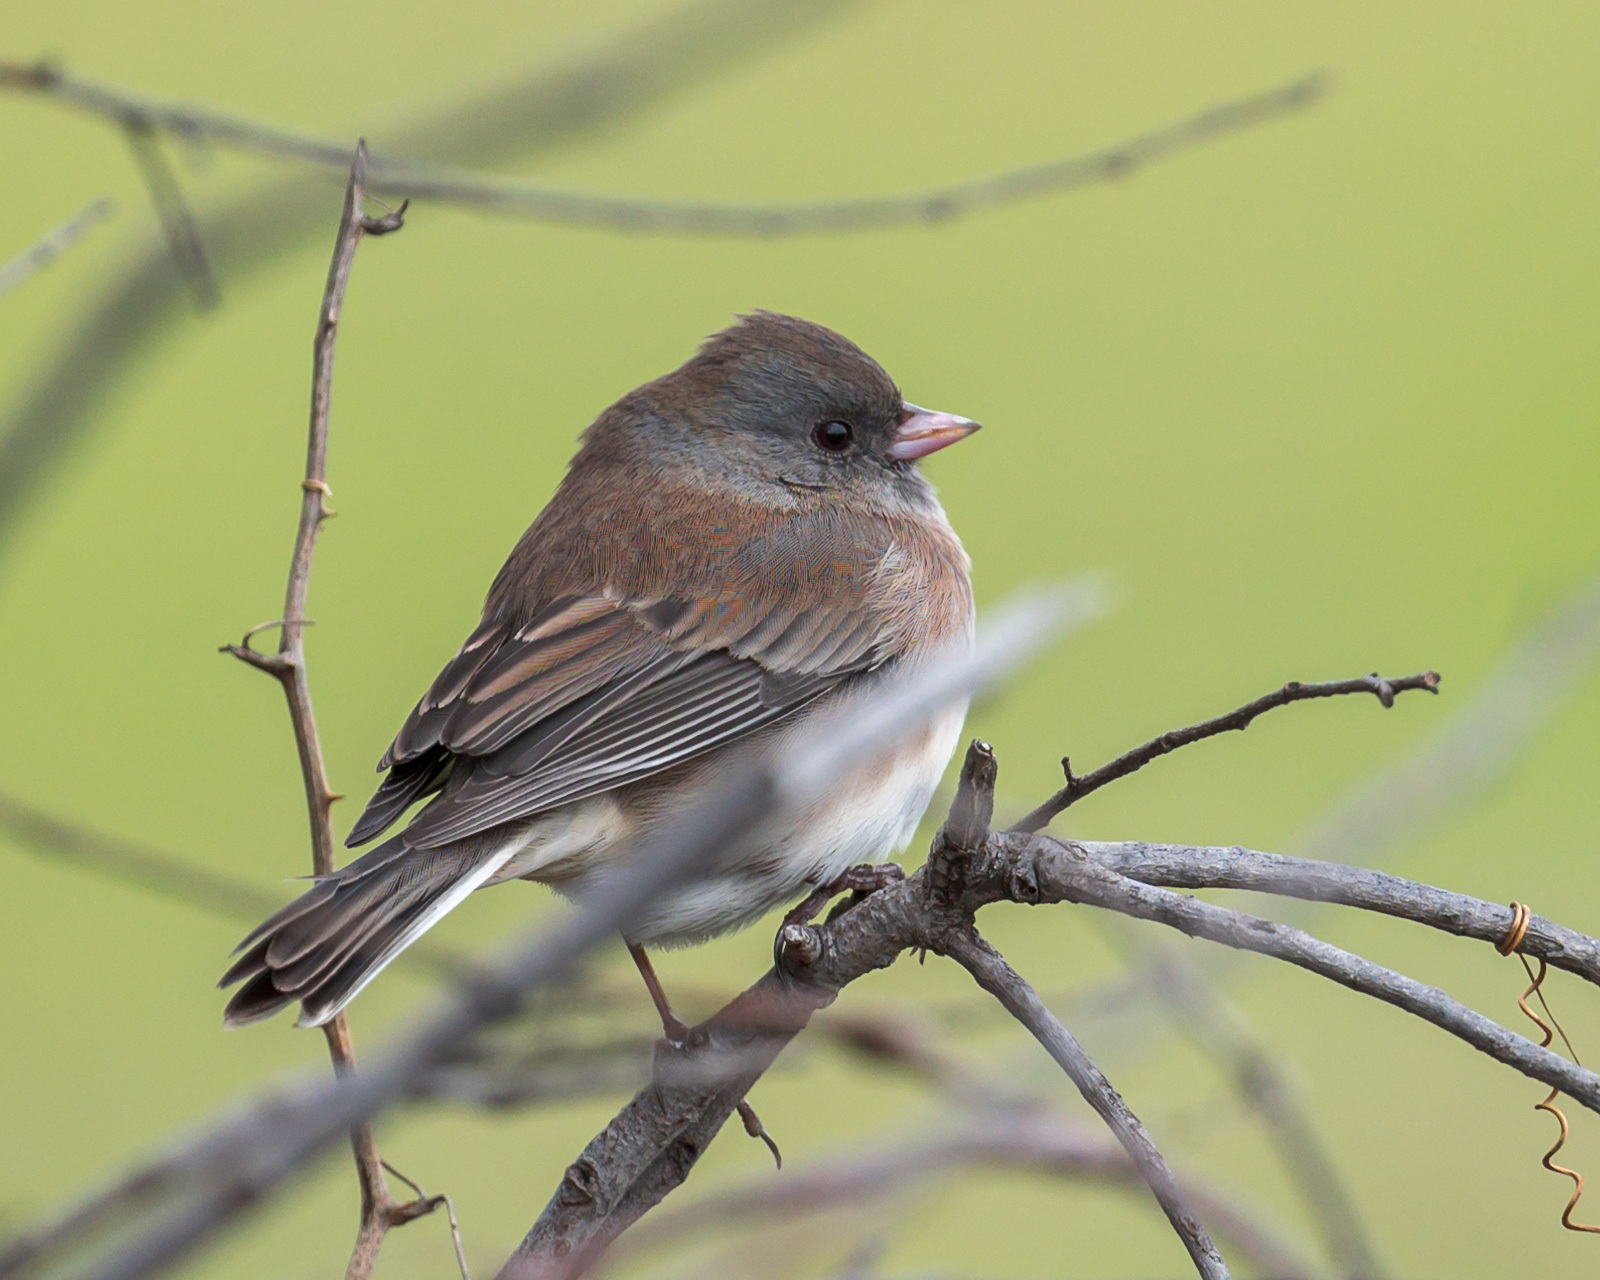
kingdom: Animalia
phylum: Chordata
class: Aves
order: Passeriformes
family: Passerellidae
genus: Junco
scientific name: Junco hyemalis
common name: Dark-eyed junco
